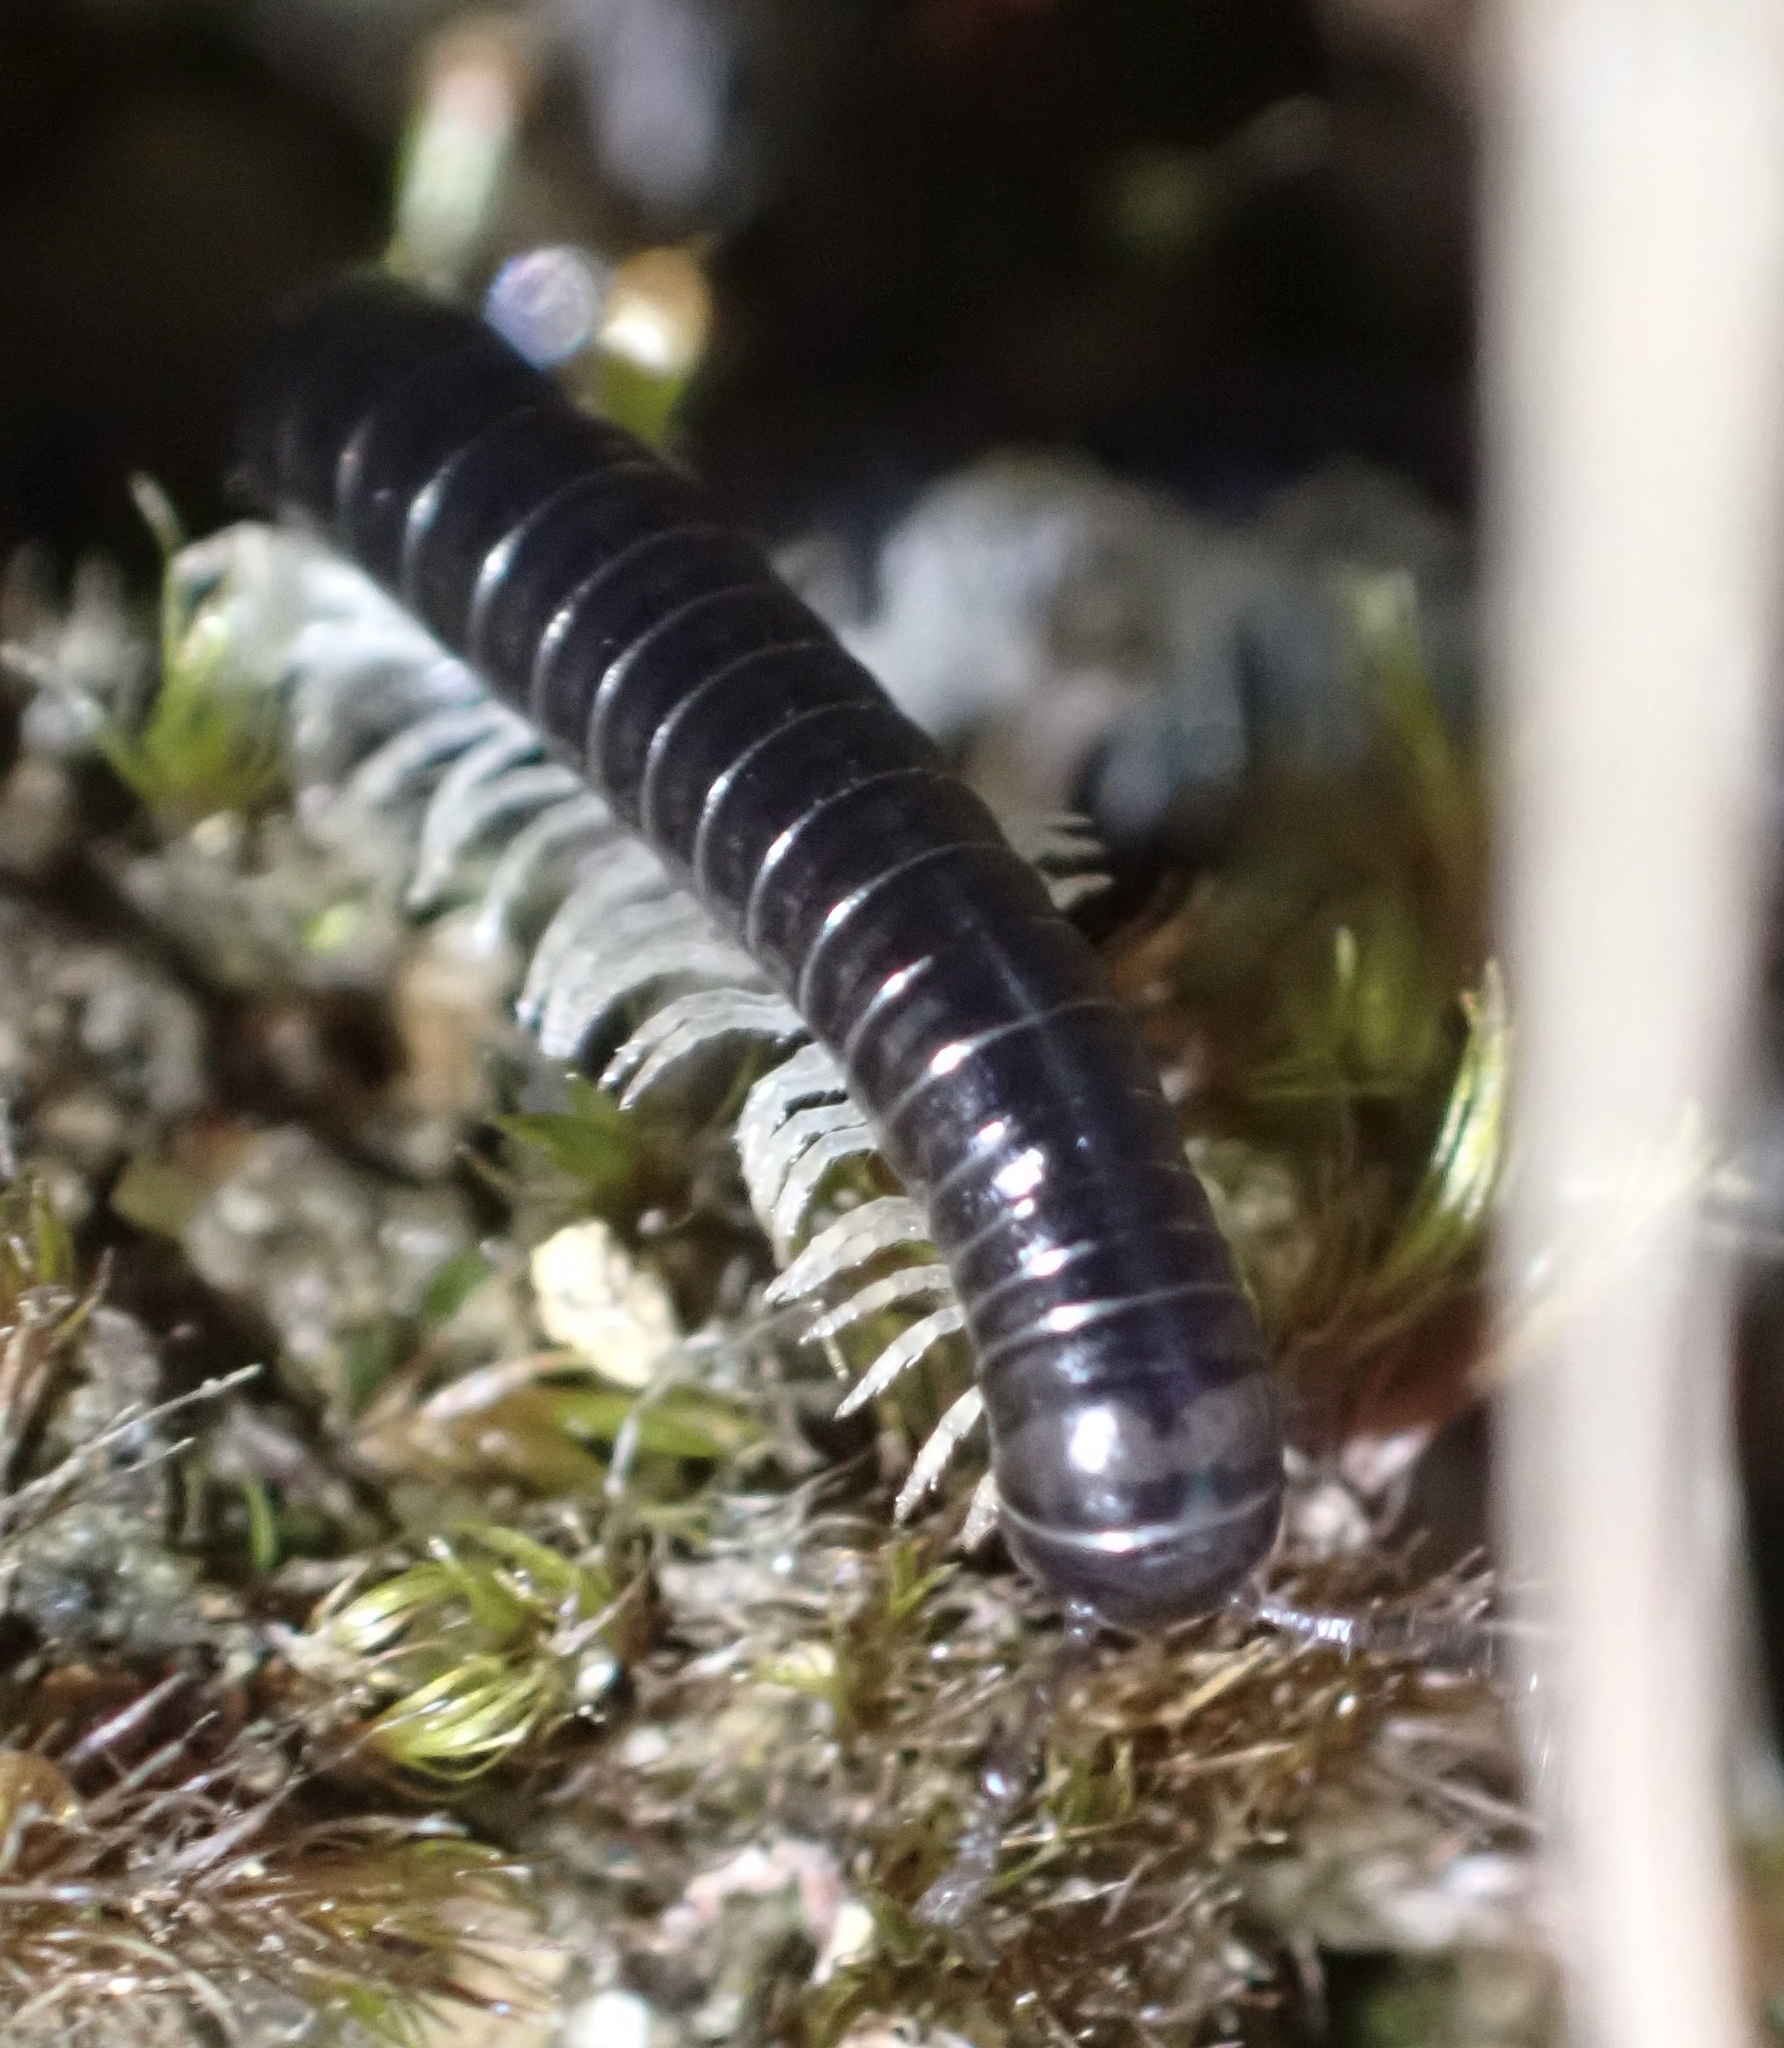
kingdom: Animalia
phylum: Arthropoda
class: Diplopoda
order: Julida
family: Julidae
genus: Tachypodoiulus
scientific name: Tachypodoiulus niger
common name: White-legged snake millipede
